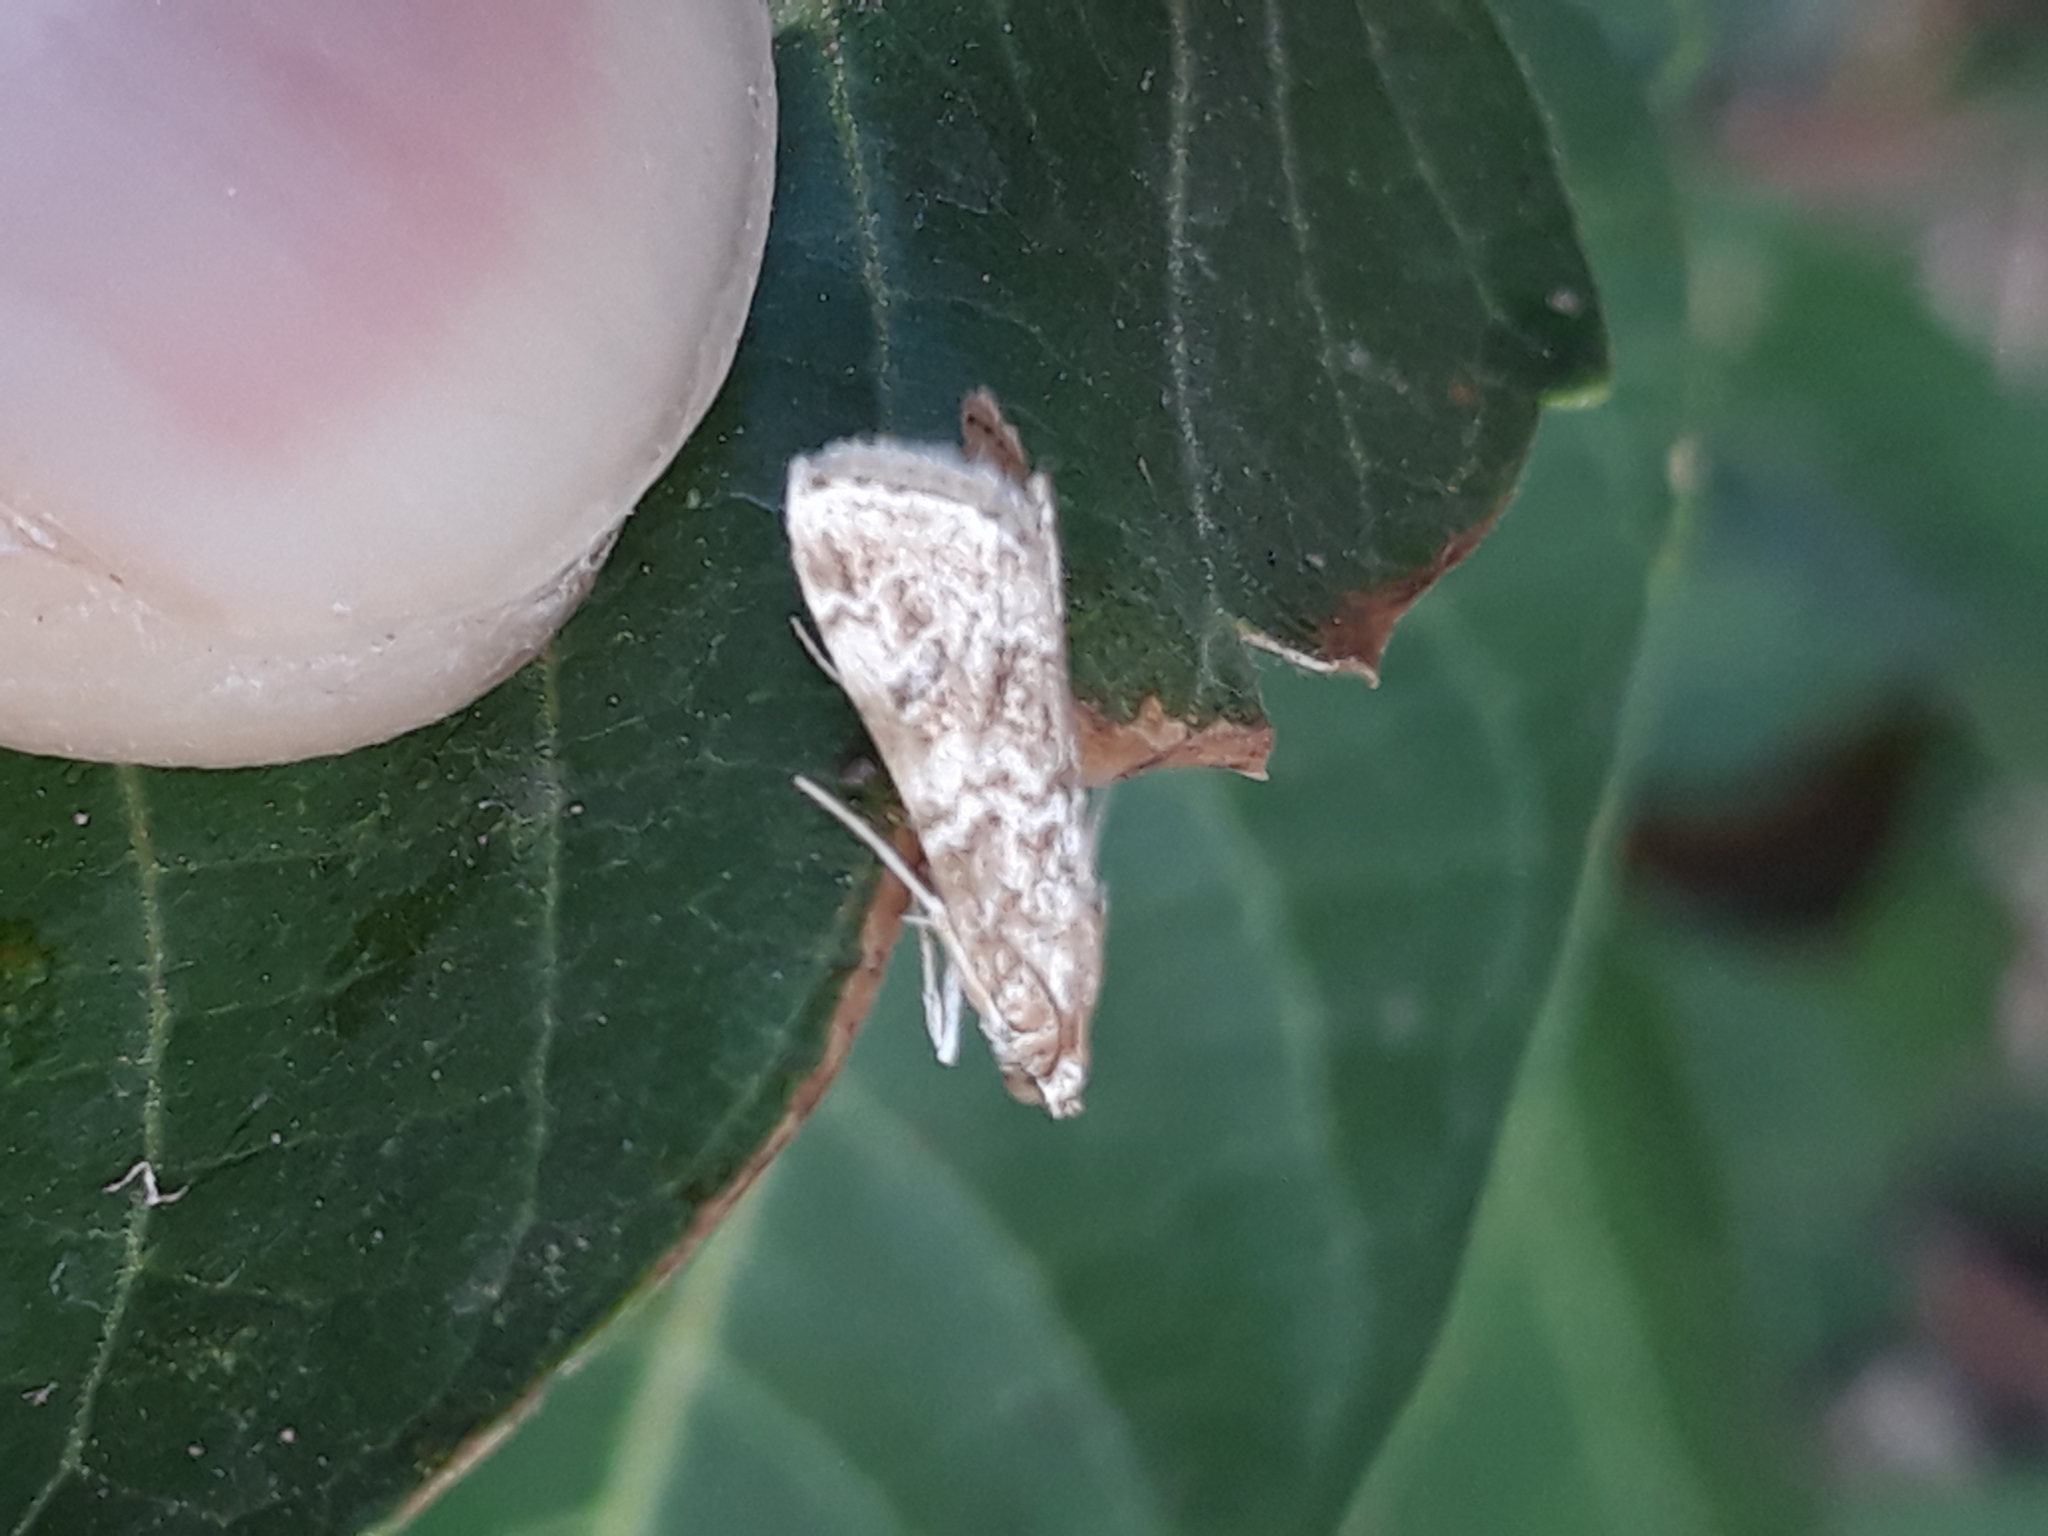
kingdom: Animalia
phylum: Arthropoda
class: Insecta
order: Lepidoptera
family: Crambidae
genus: Hellula
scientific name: Hellula undalis
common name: Cabbage webworm
